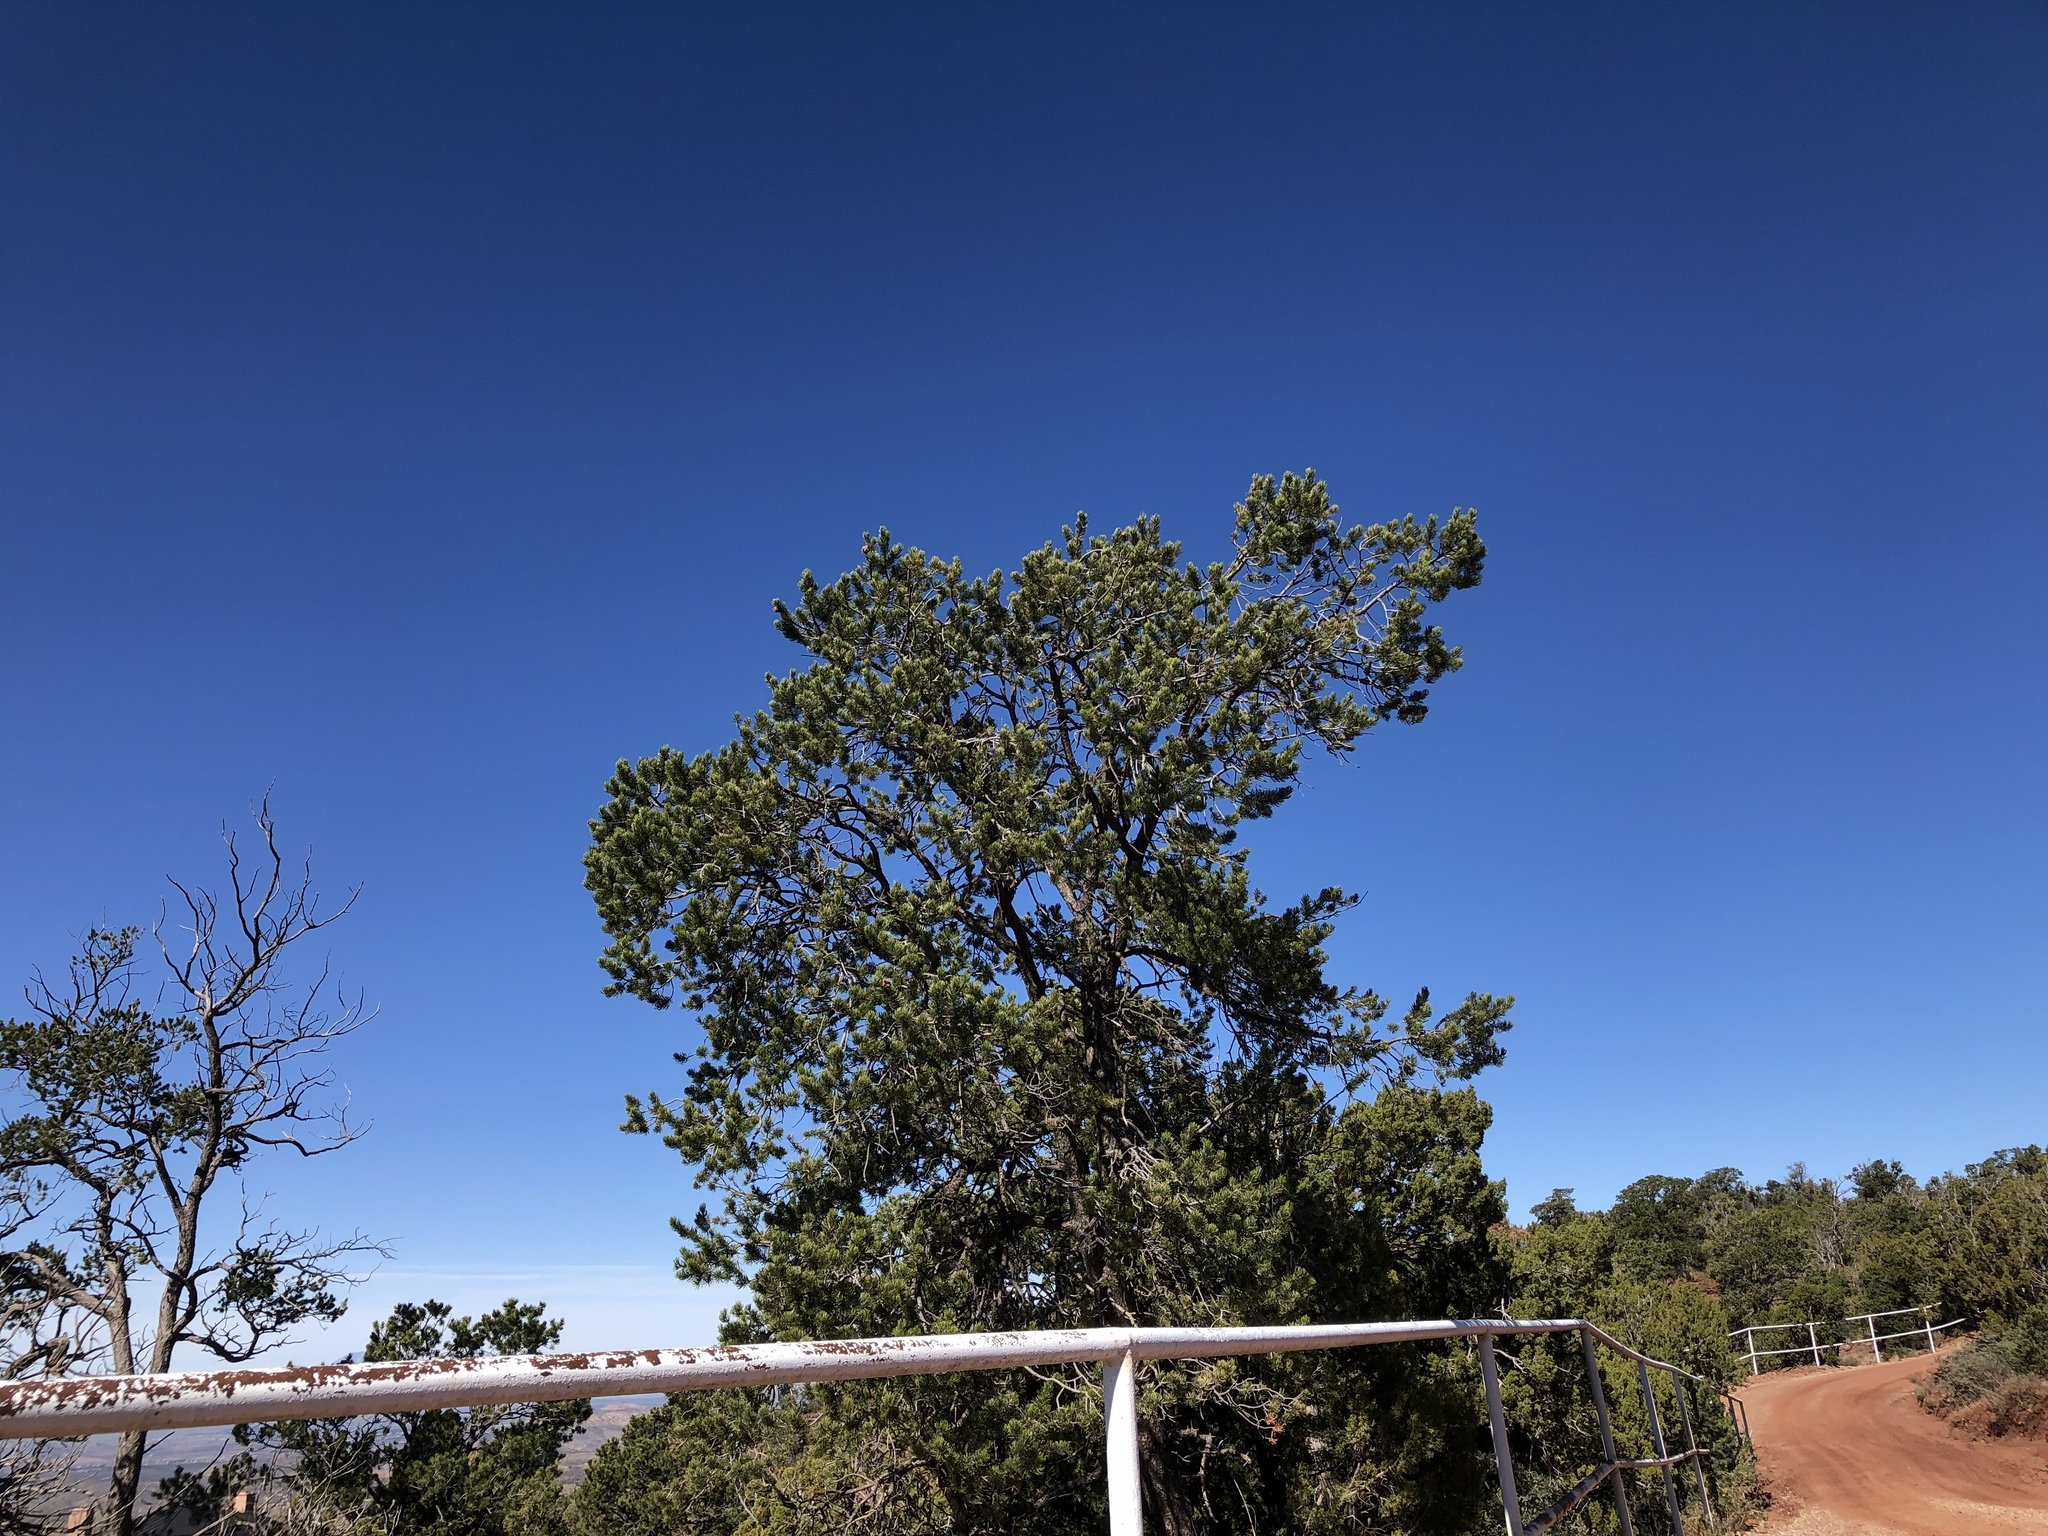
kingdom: Plantae
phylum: Tracheophyta
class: Pinopsida
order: Pinales
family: Pinaceae
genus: Pinus
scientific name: Pinus edulis
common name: Colorado pinyon
